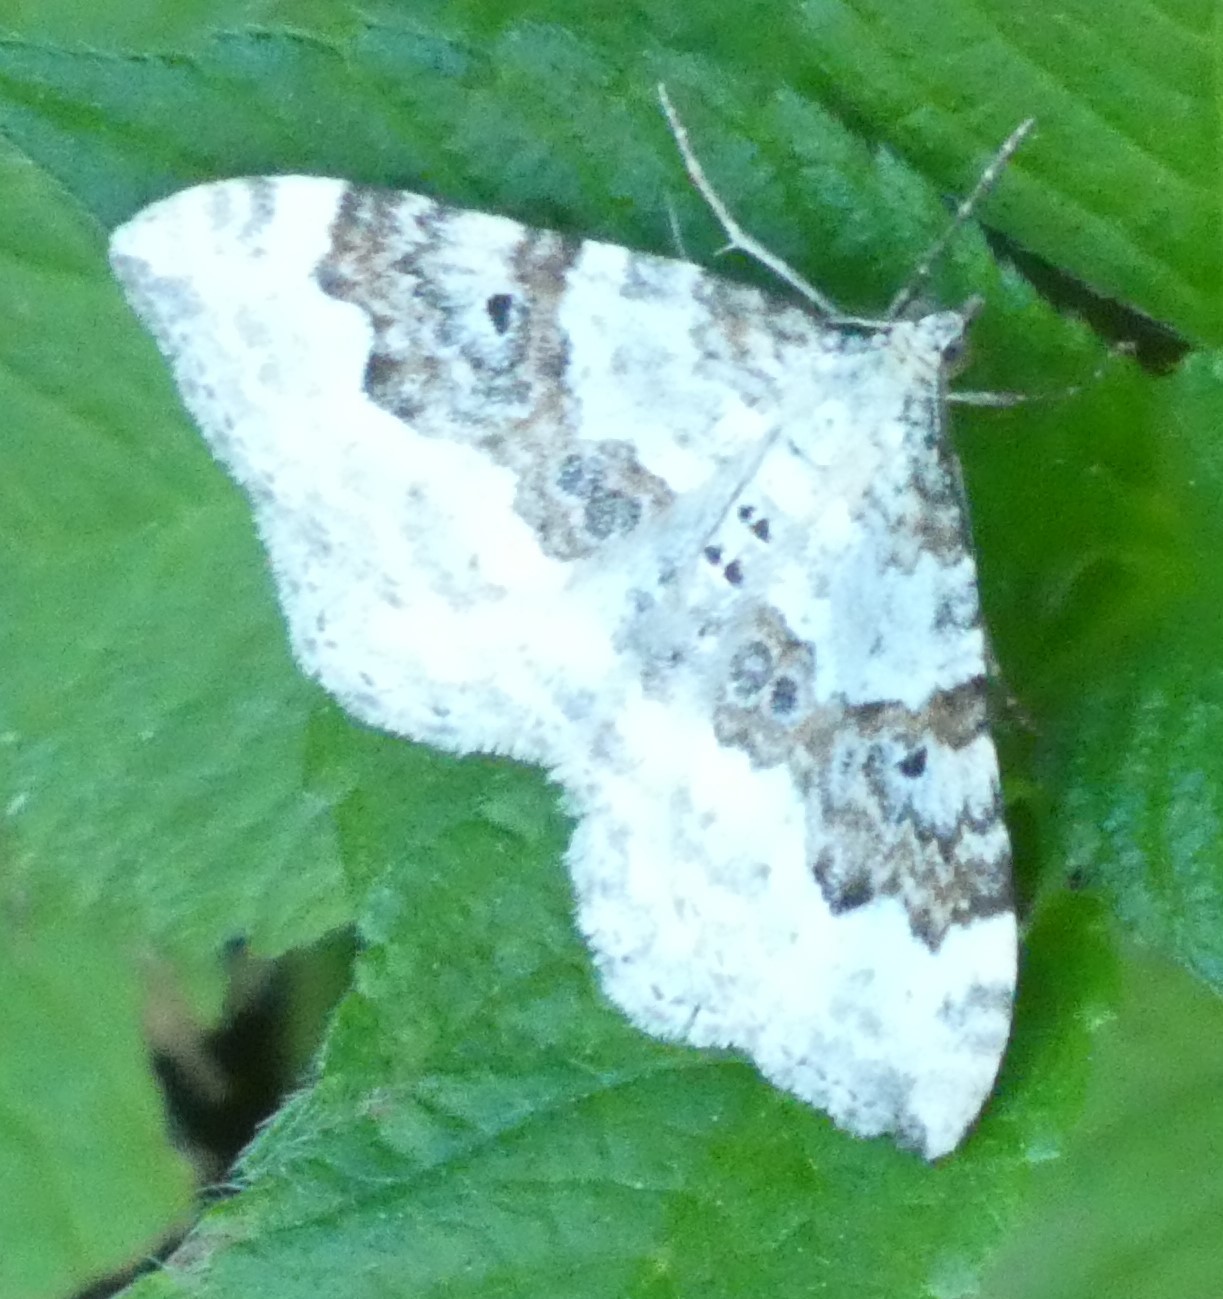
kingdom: Animalia
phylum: Arthropoda
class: Insecta
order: Lepidoptera
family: Geometridae
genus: Xanthorhoe
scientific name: Xanthorhoe montanata
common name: Silver-ground carpet
